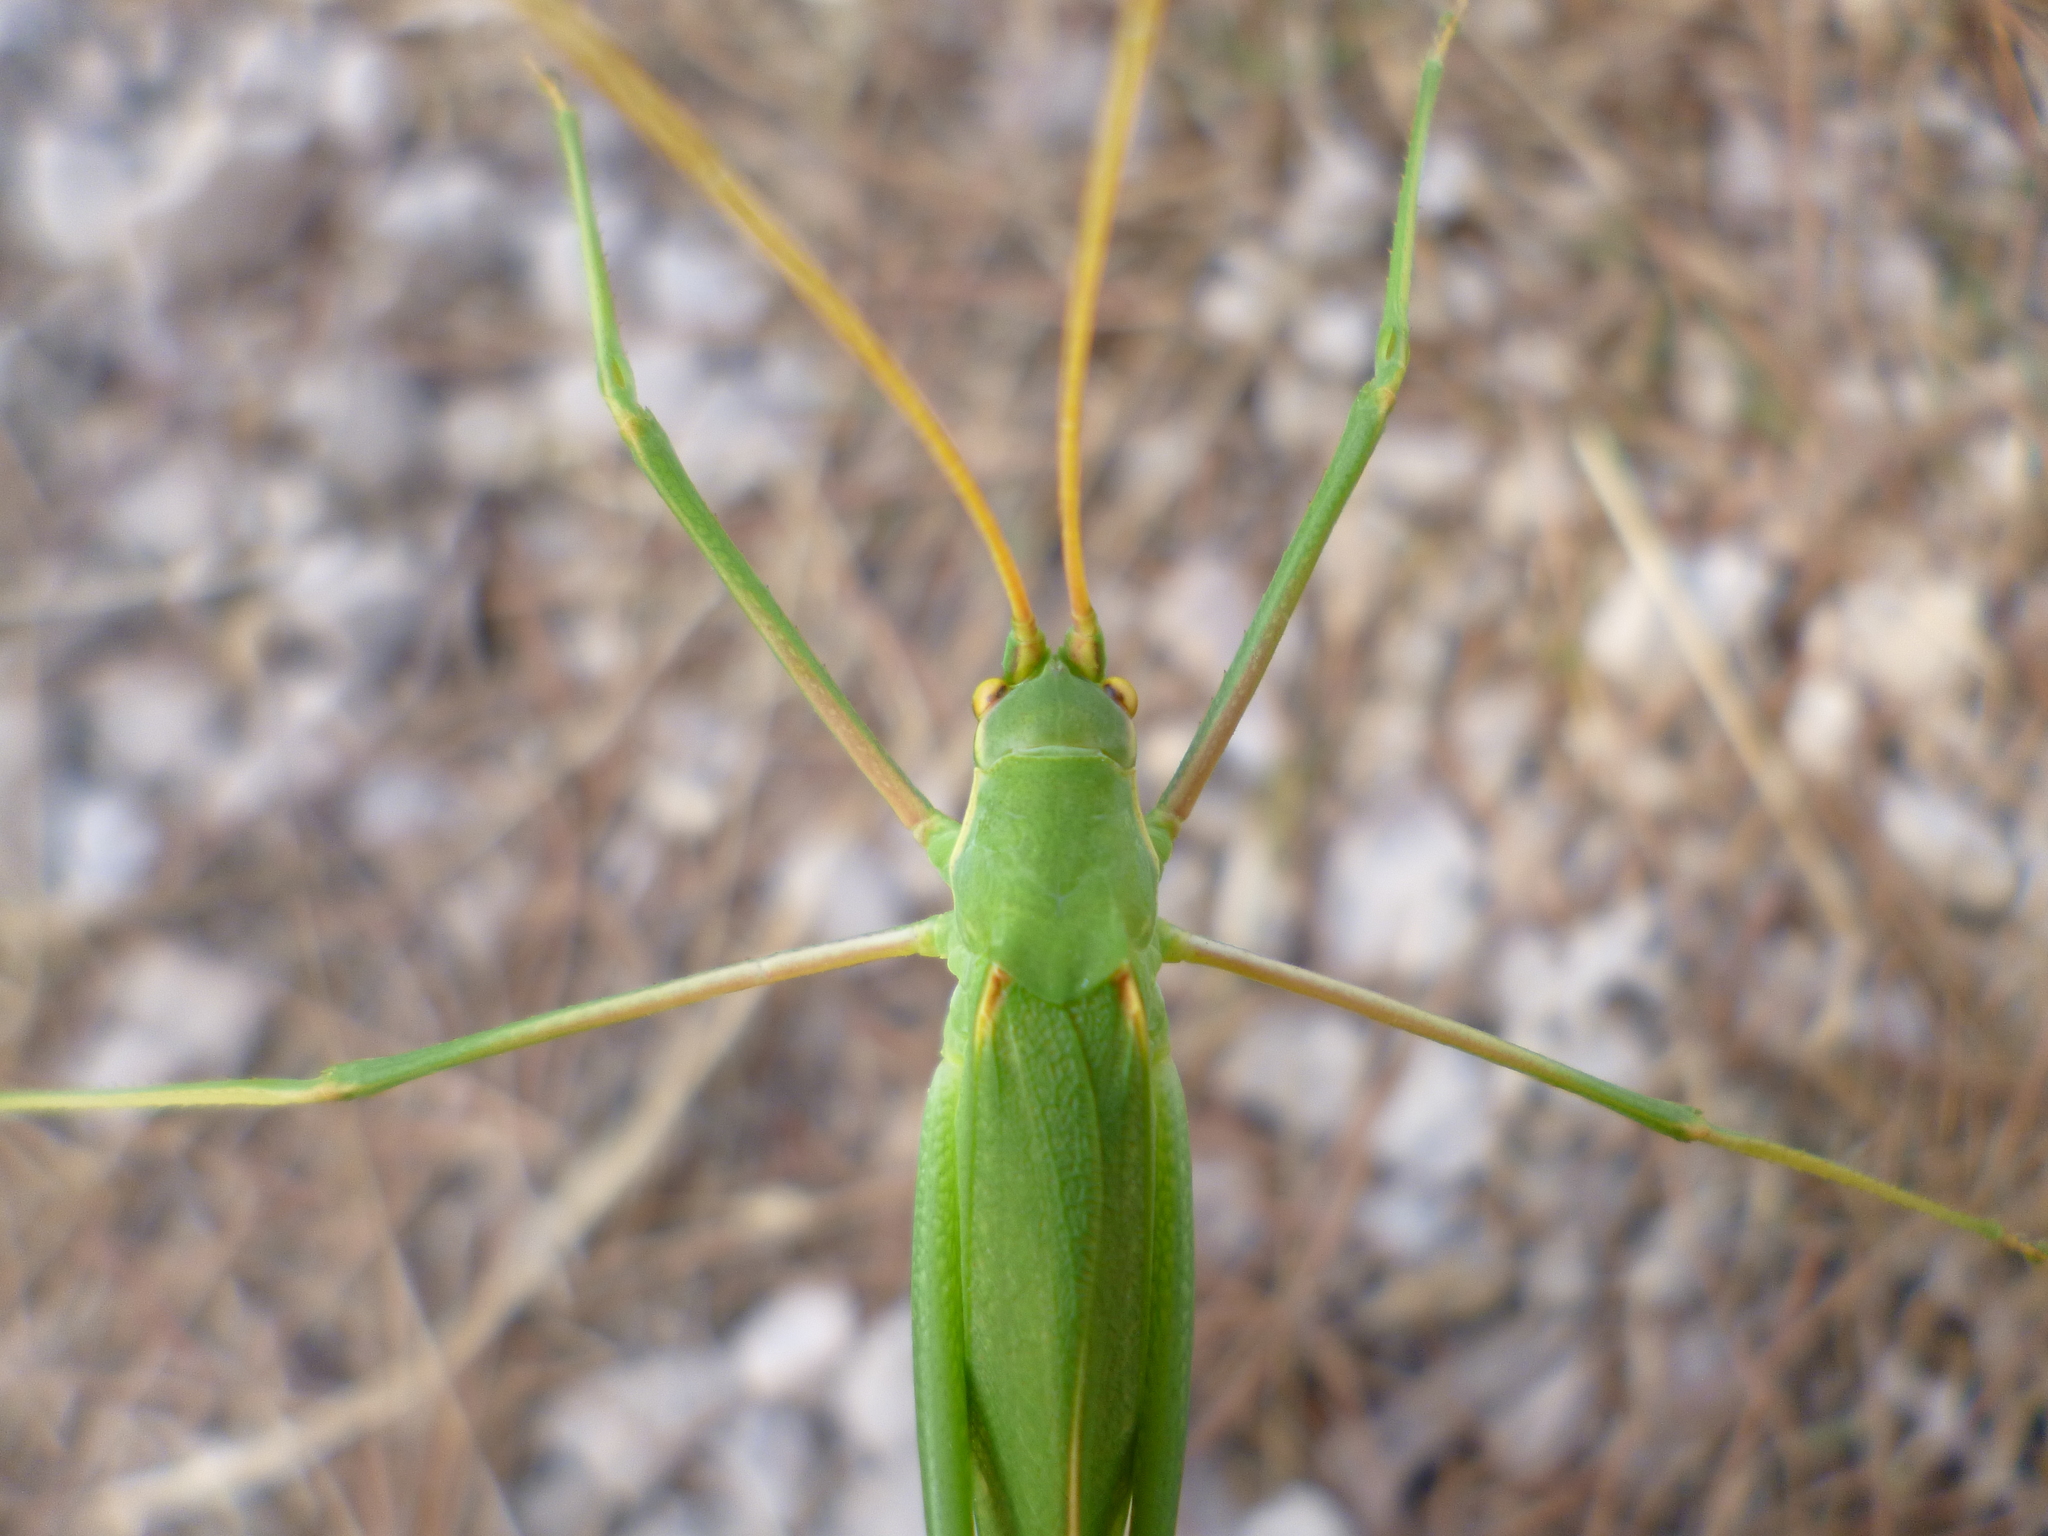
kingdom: Animalia
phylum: Arthropoda
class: Insecta
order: Orthoptera
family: Tettigoniidae
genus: Acrometopa
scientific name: Acrometopa macropoda
